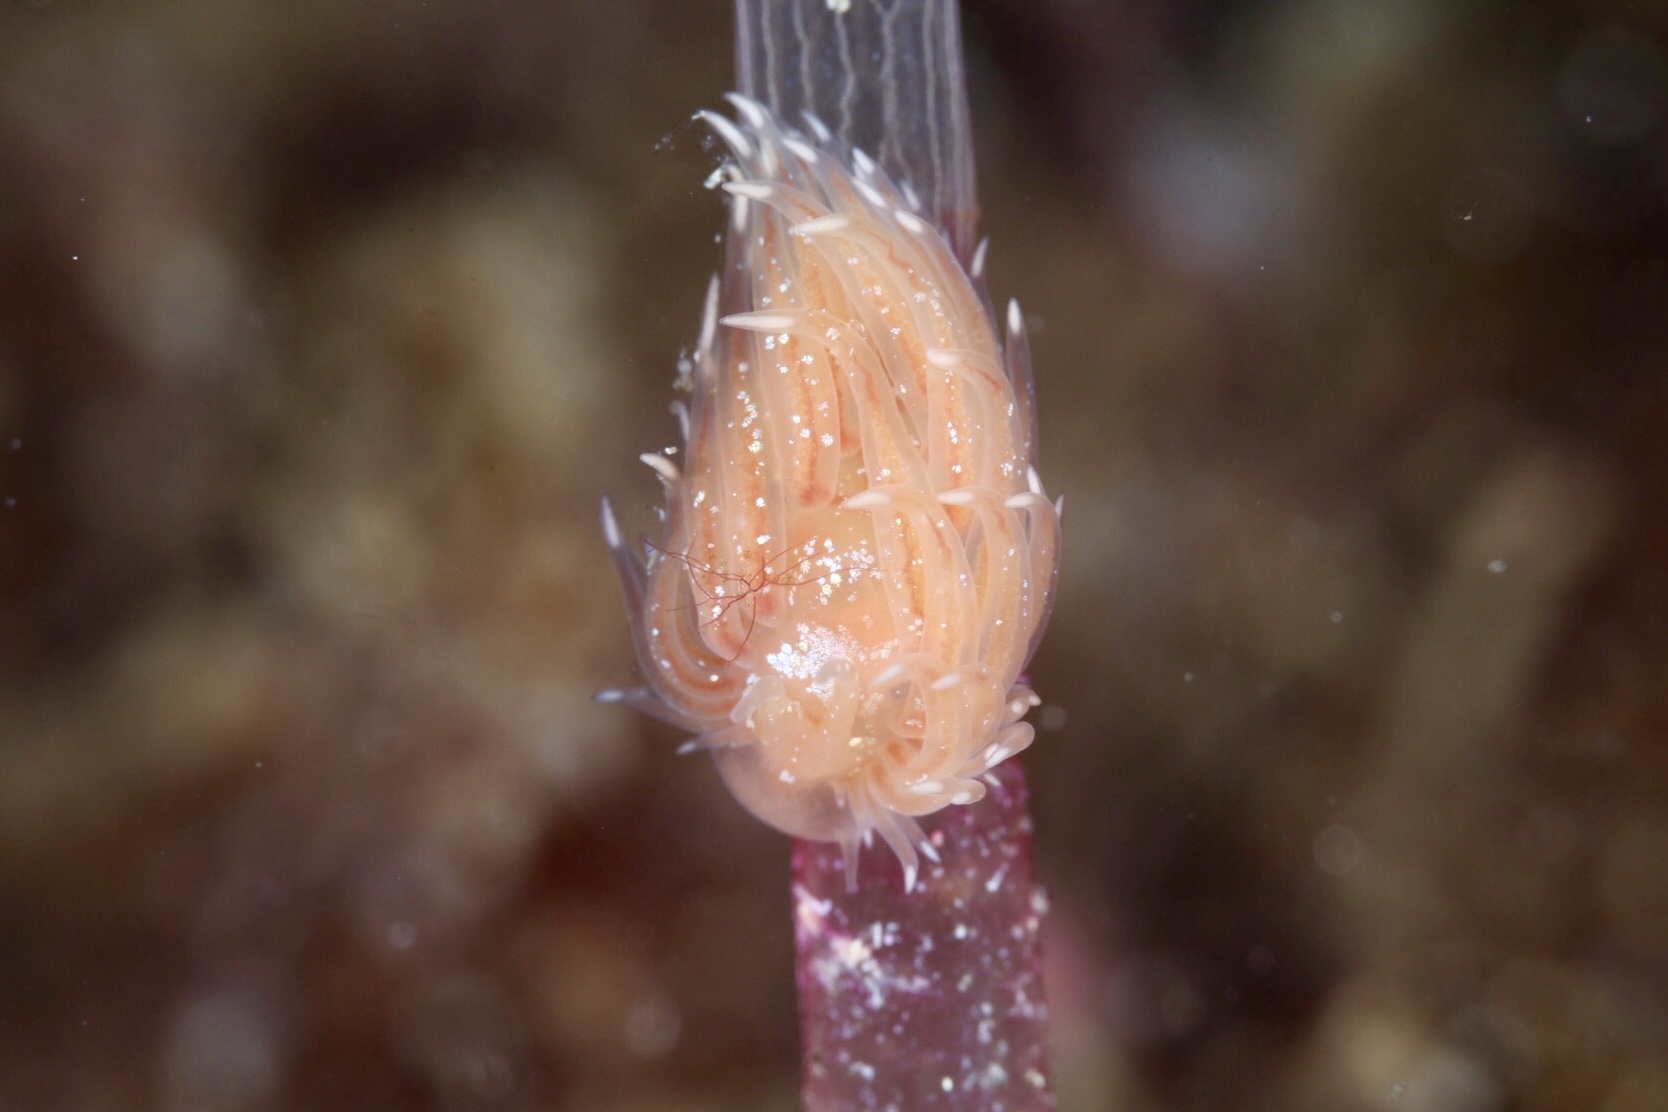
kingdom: Animalia
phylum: Mollusca
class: Gastropoda
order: Nudibranchia
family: Cumanotidae
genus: Cumanotus
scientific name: Cumanotus beaumonti
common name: Polyp aeolis
